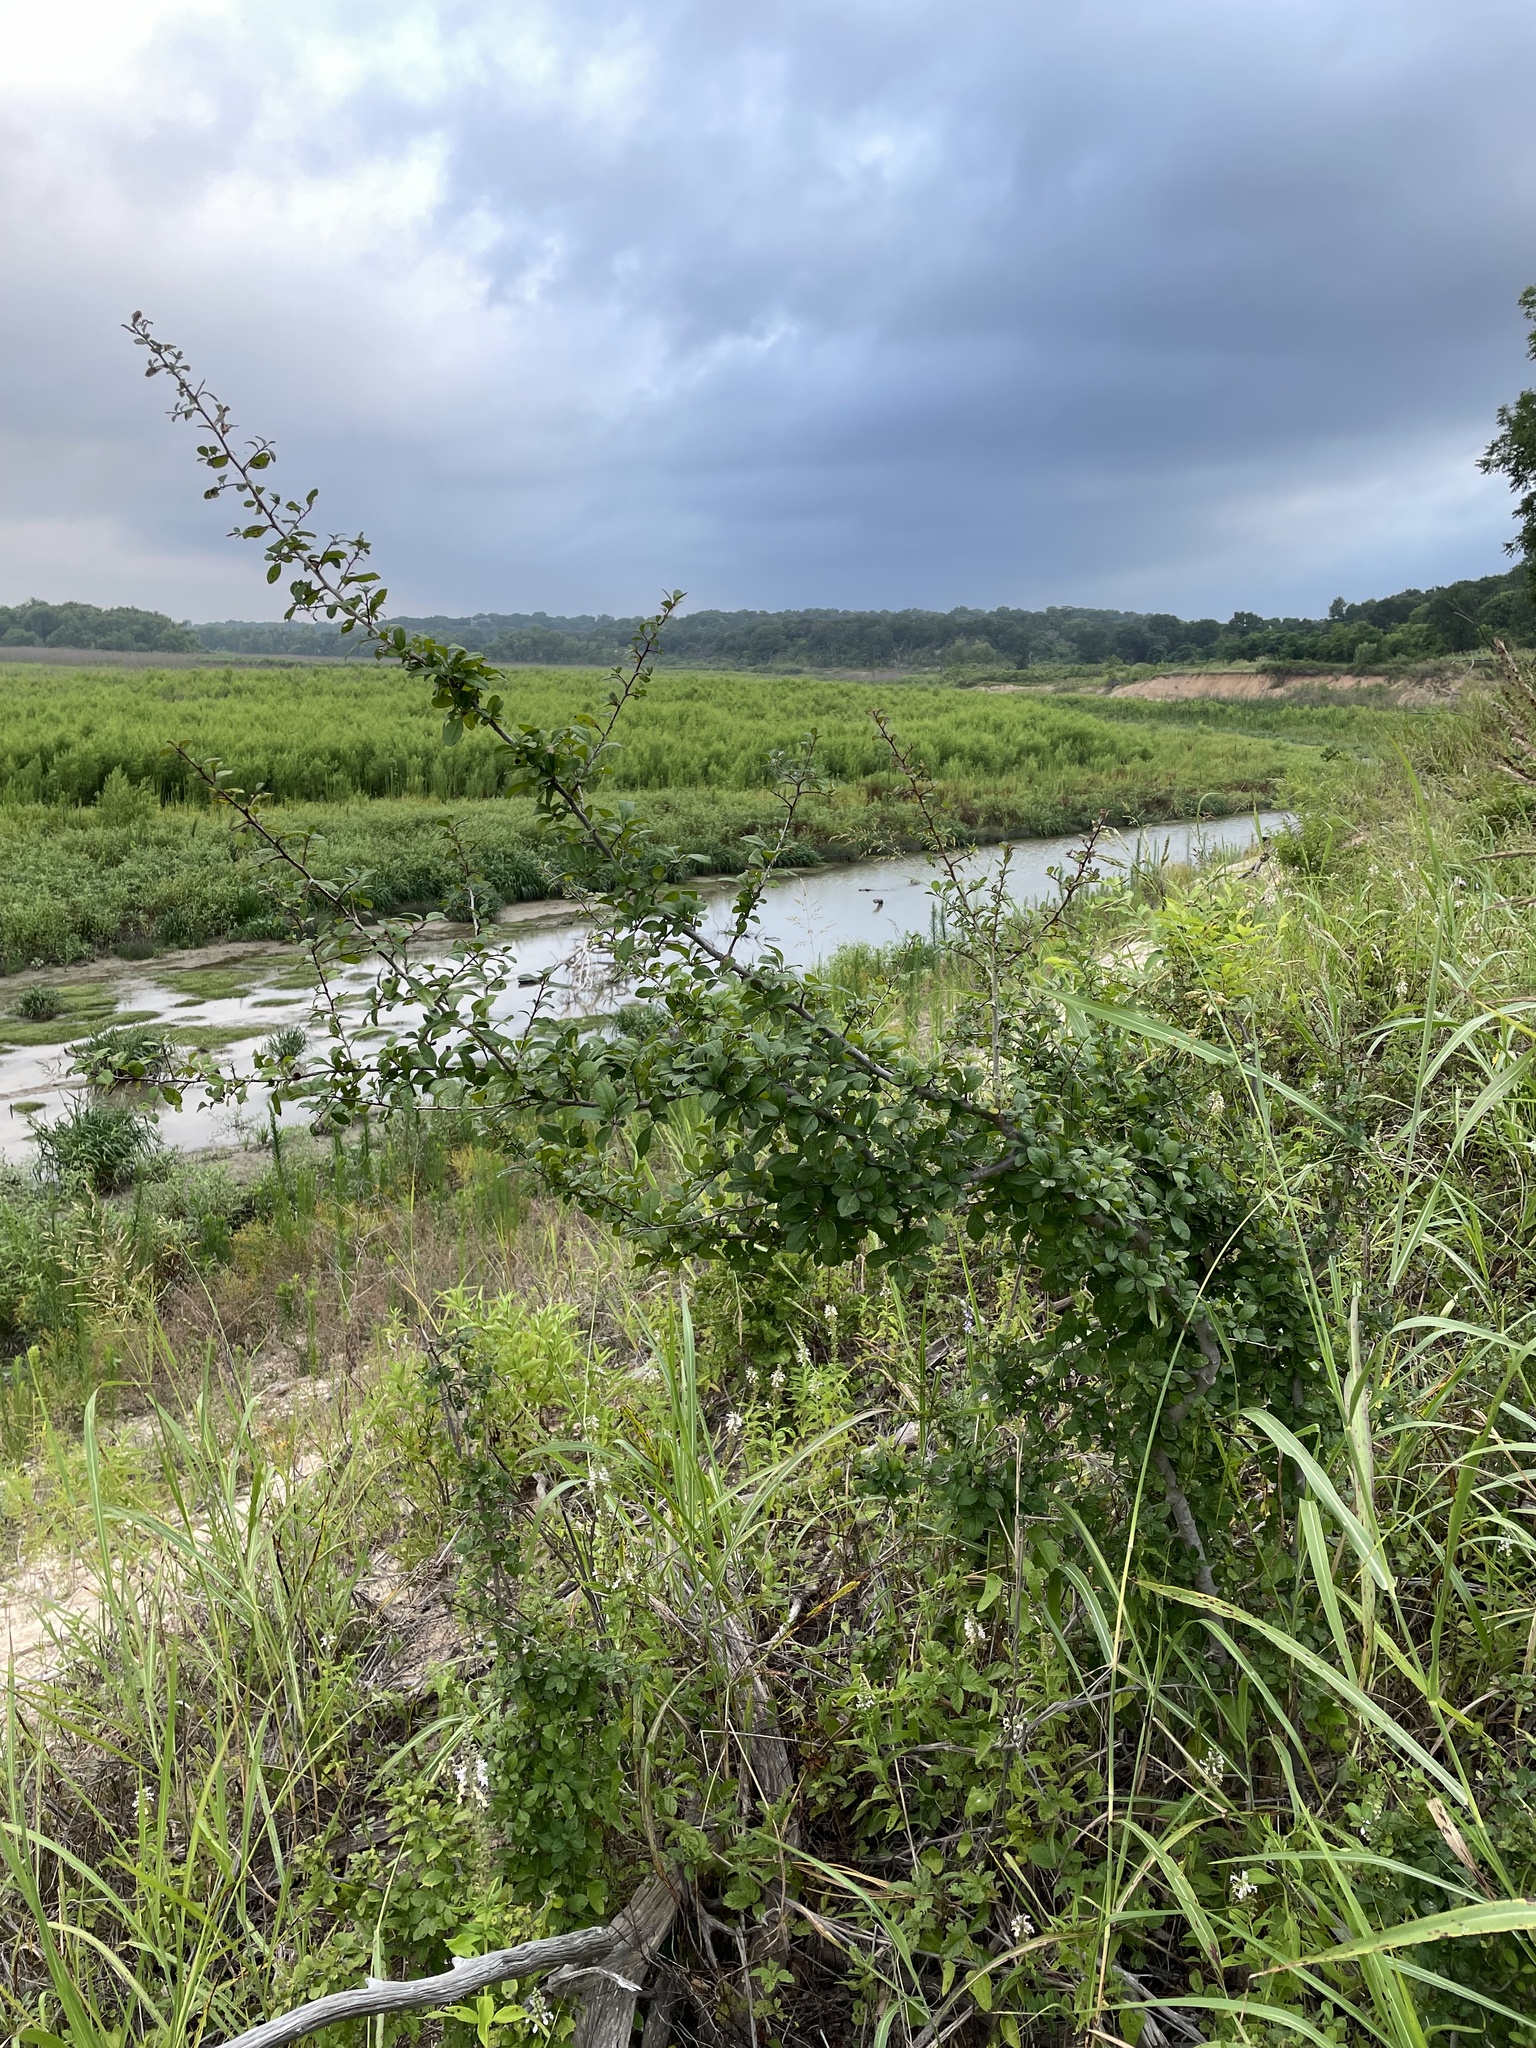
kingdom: Plantae
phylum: Tracheophyta
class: Magnoliopsida
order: Aquifoliales
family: Aquifoliaceae
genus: Ilex
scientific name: Ilex decidua
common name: Possum-haw
